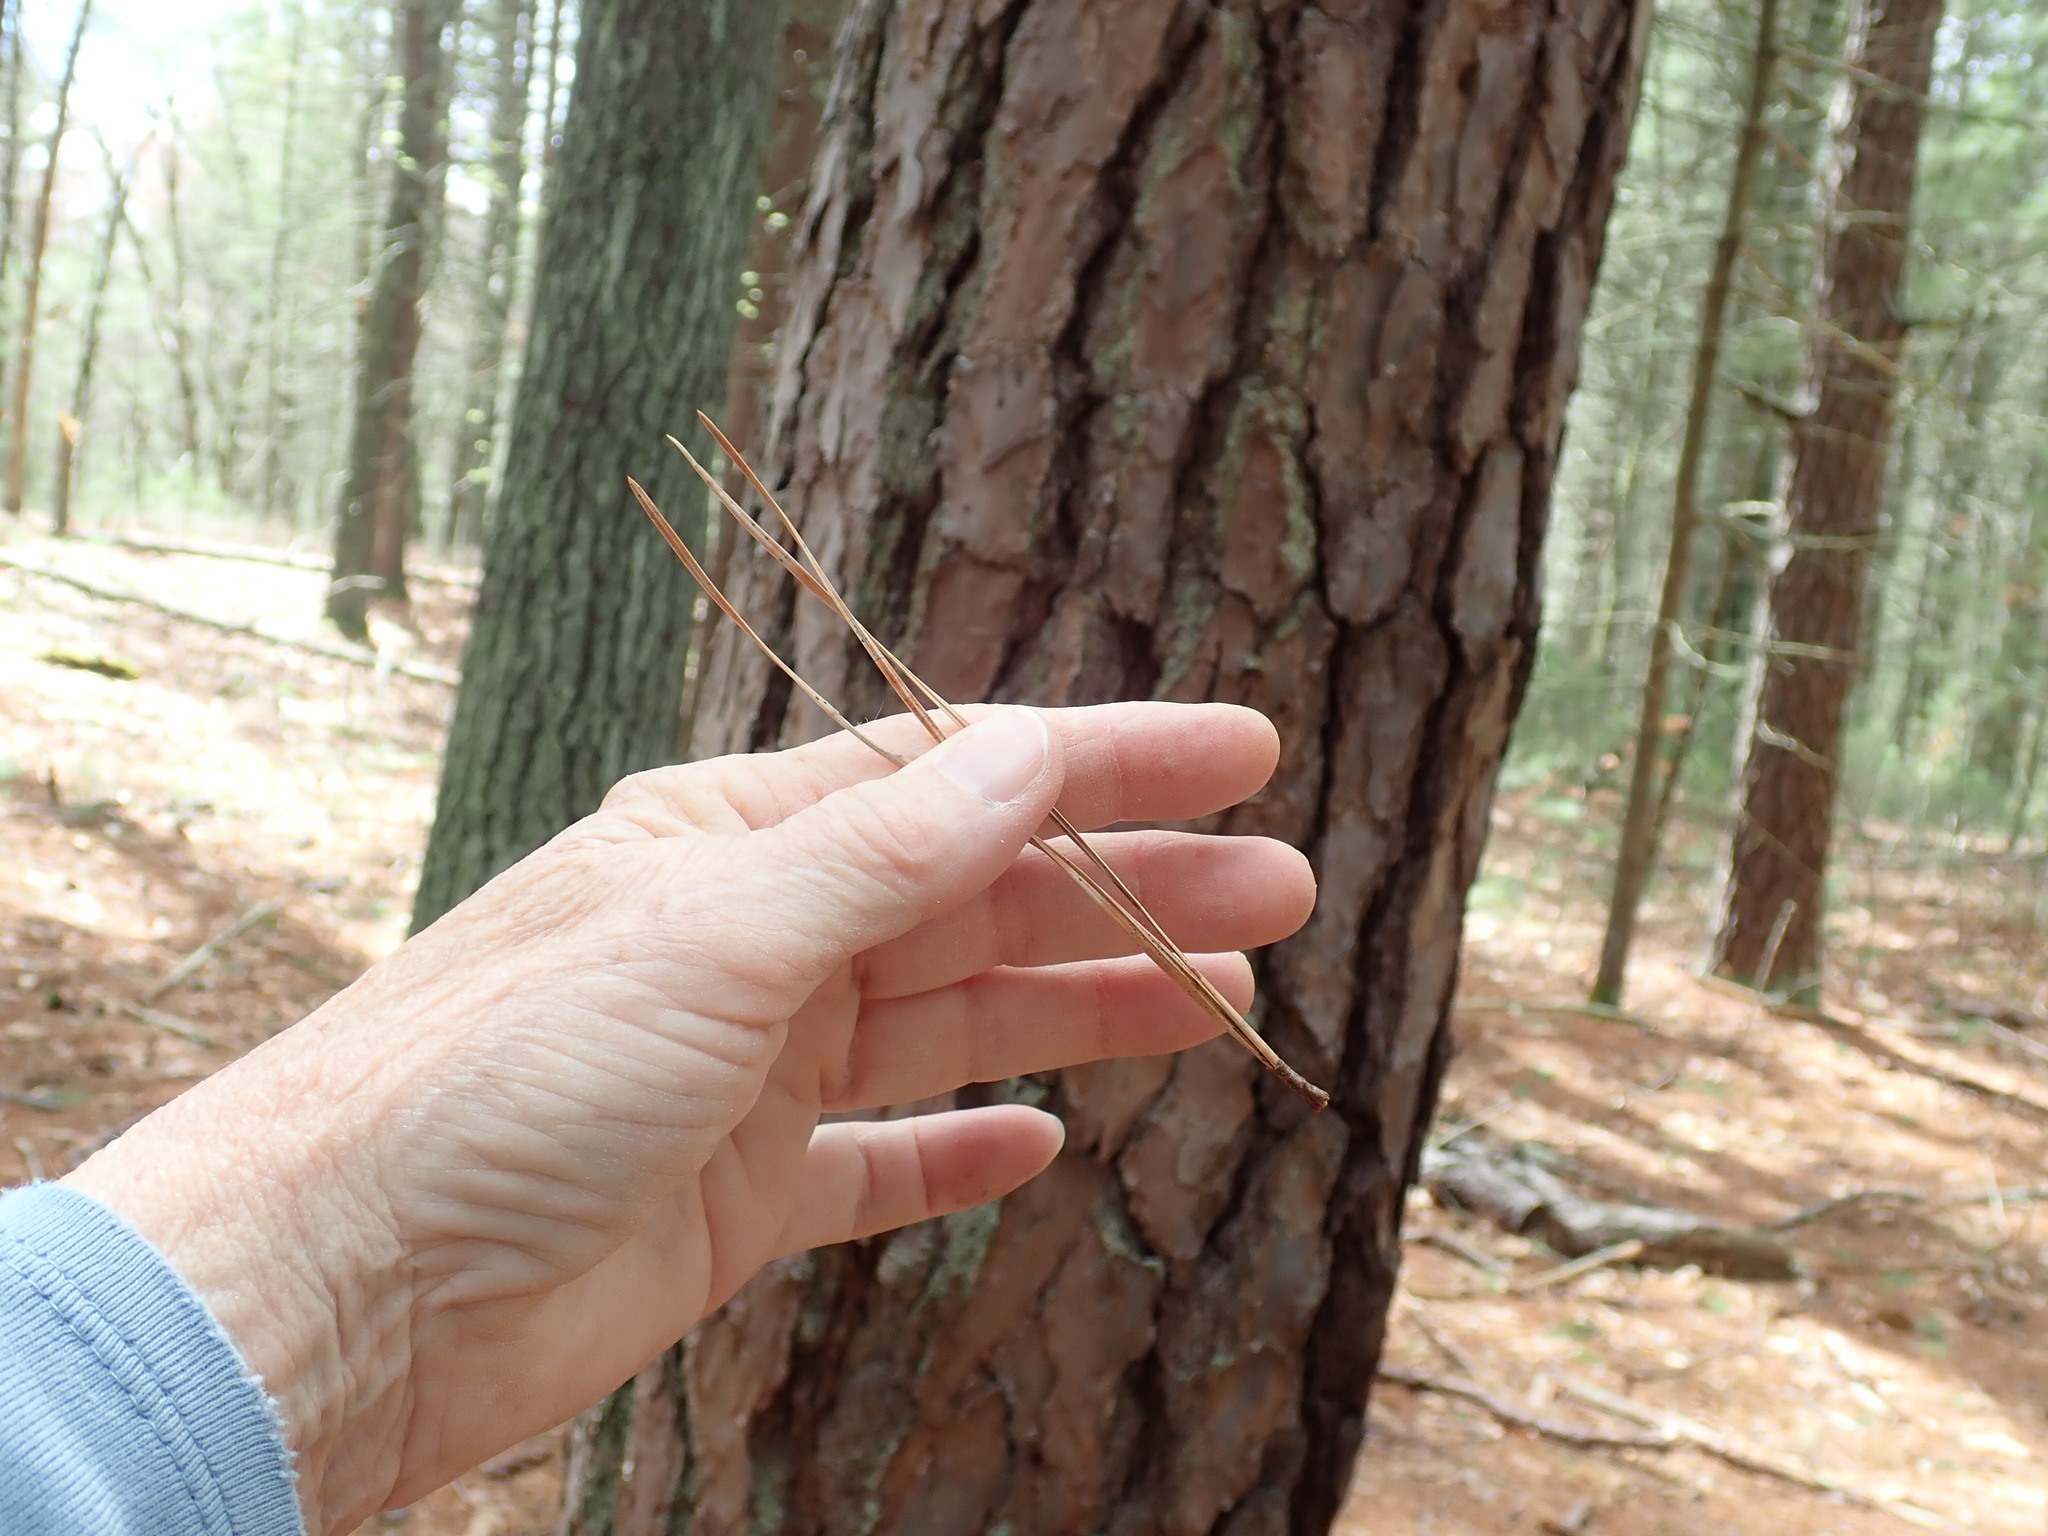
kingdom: Plantae
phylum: Tracheophyta
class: Pinopsida
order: Pinales
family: Pinaceae
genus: Pinus
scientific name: Pinus rigida
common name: Pitch pine
